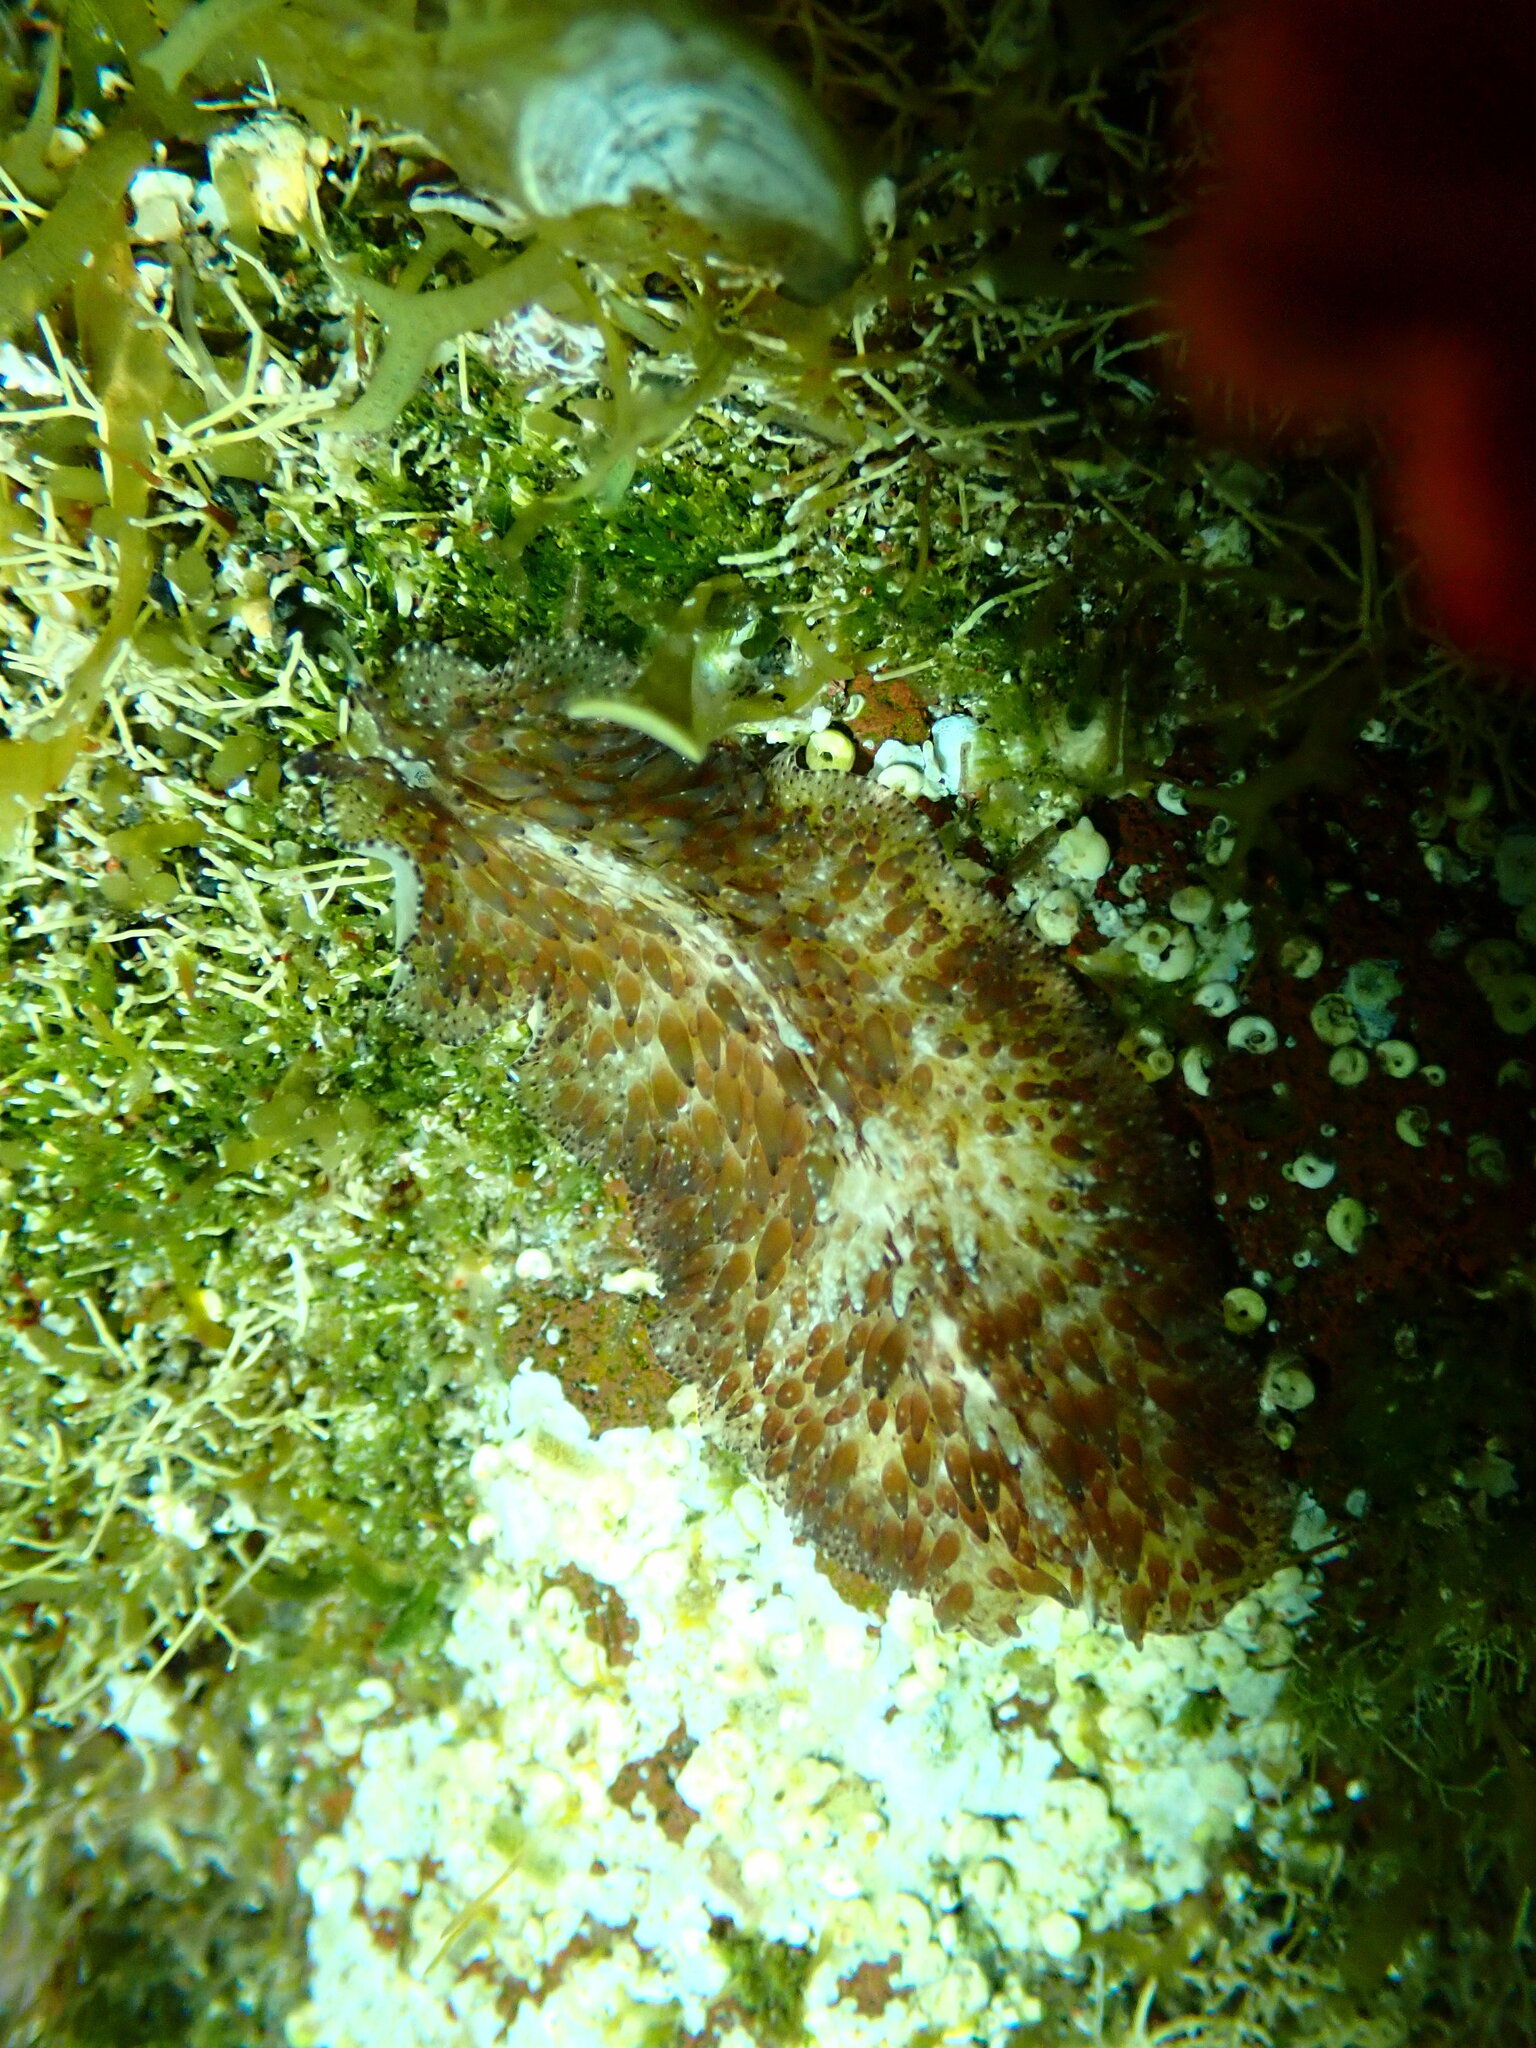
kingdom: Animalia
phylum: Platyhelminthes
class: Turbellaria
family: Pseudocerotidae
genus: Thysanozoon
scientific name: Thysanozoon brocchii
